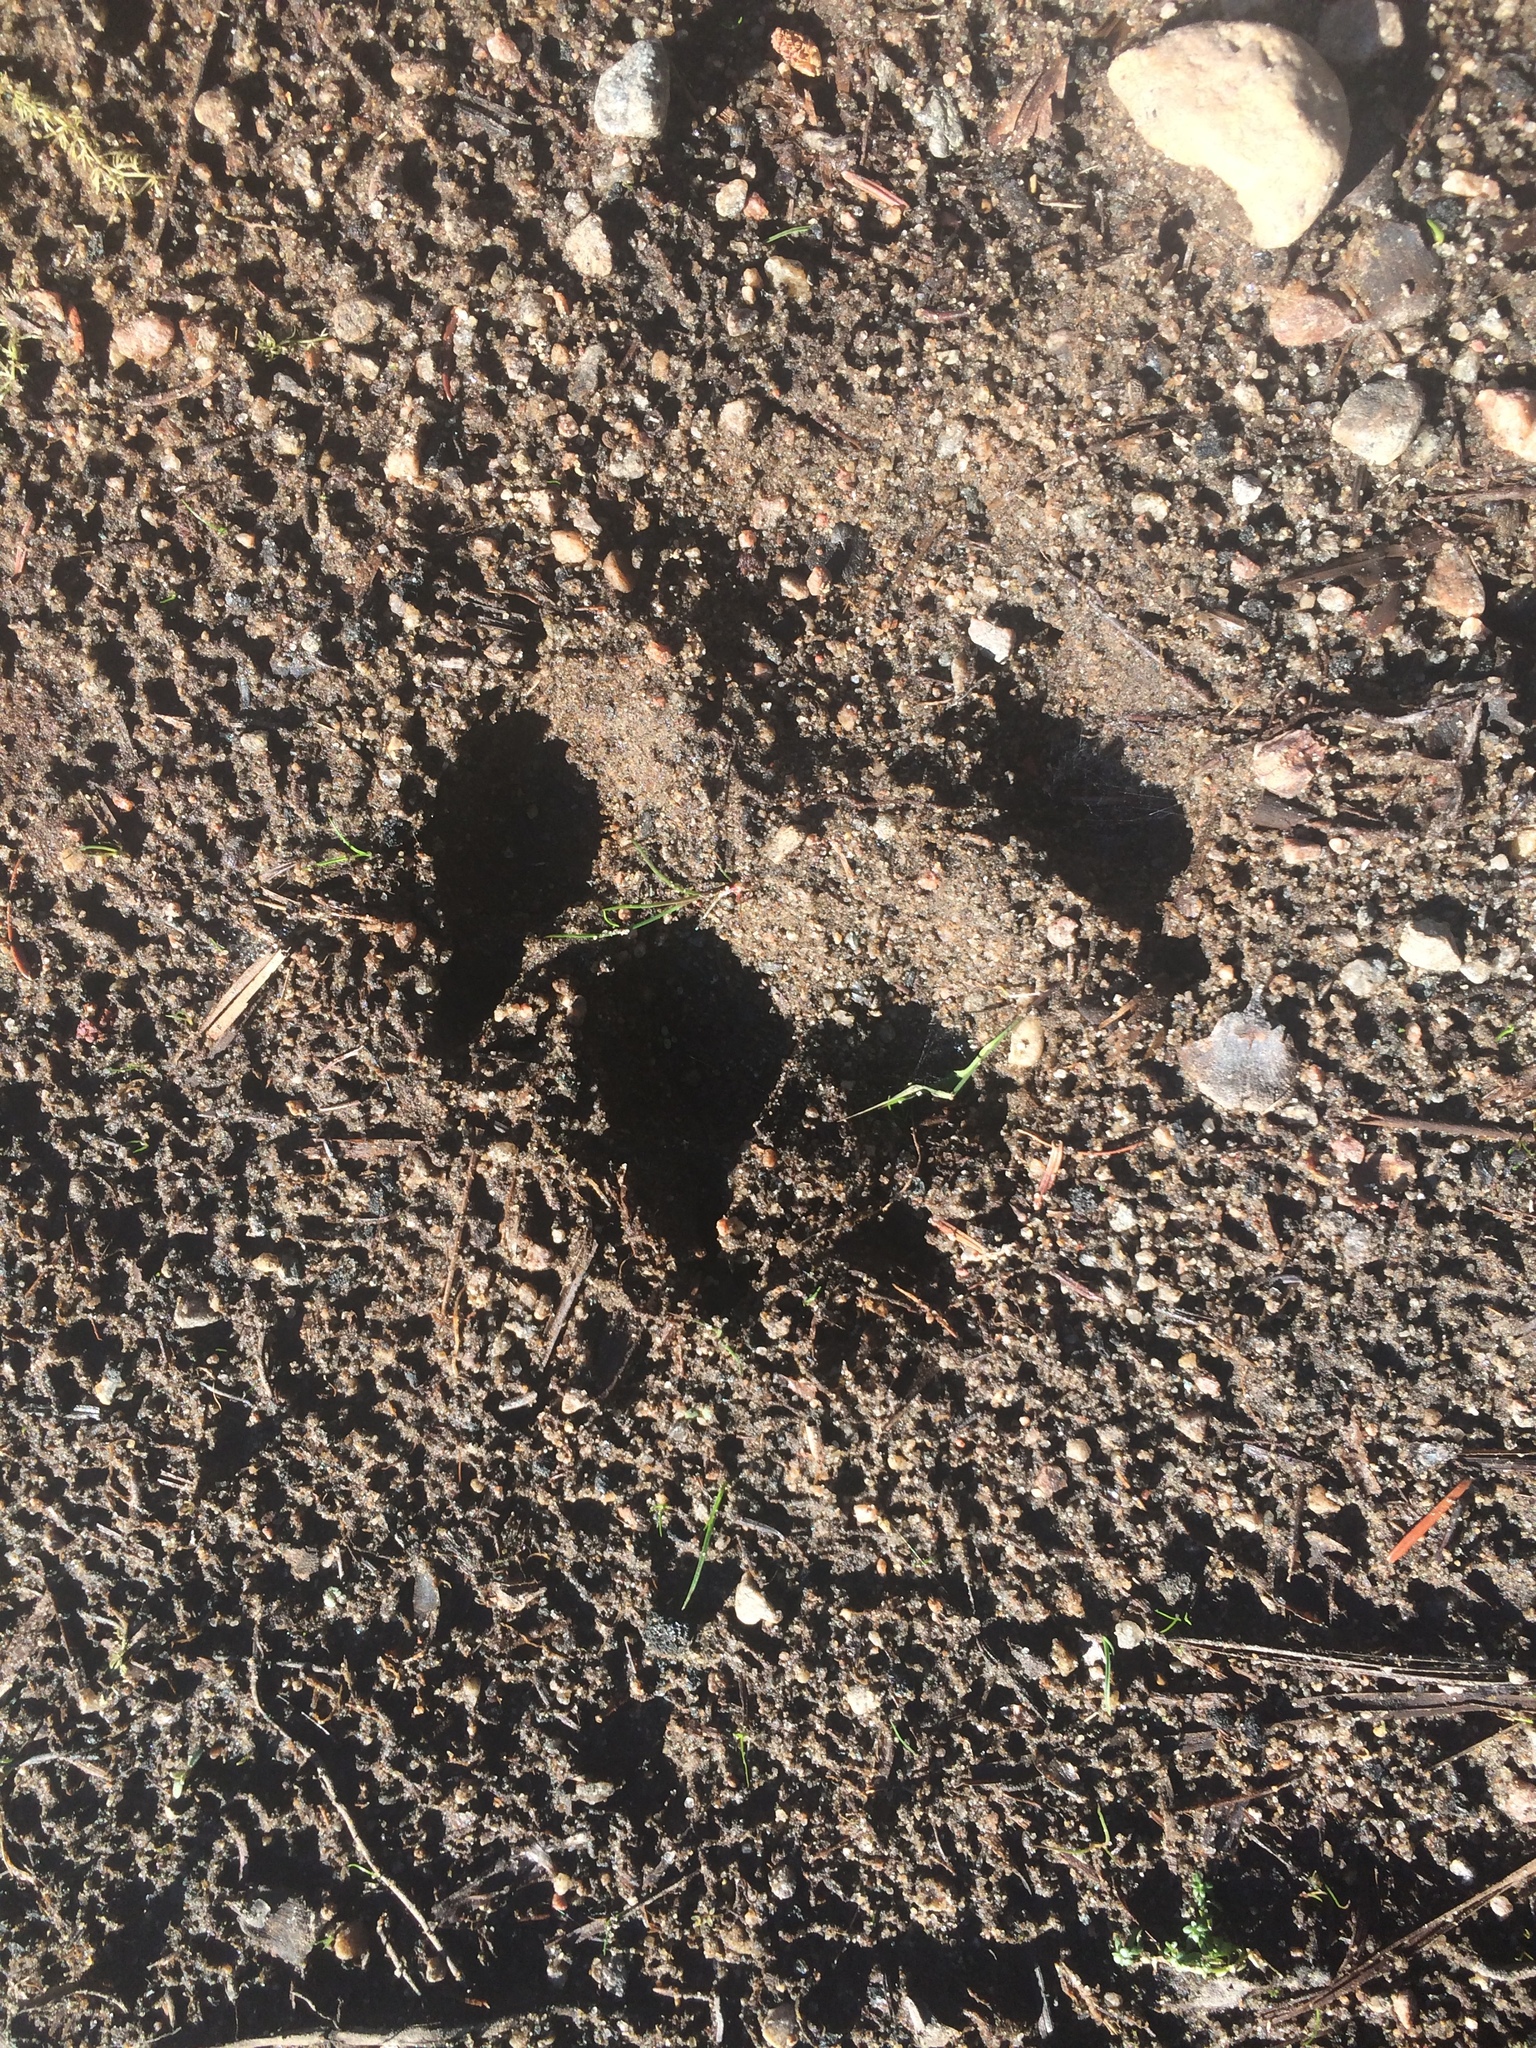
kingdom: Animalia
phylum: Chordata
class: Mammalia
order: Carnivora
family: Canidae
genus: Canis
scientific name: Canis lycaon
